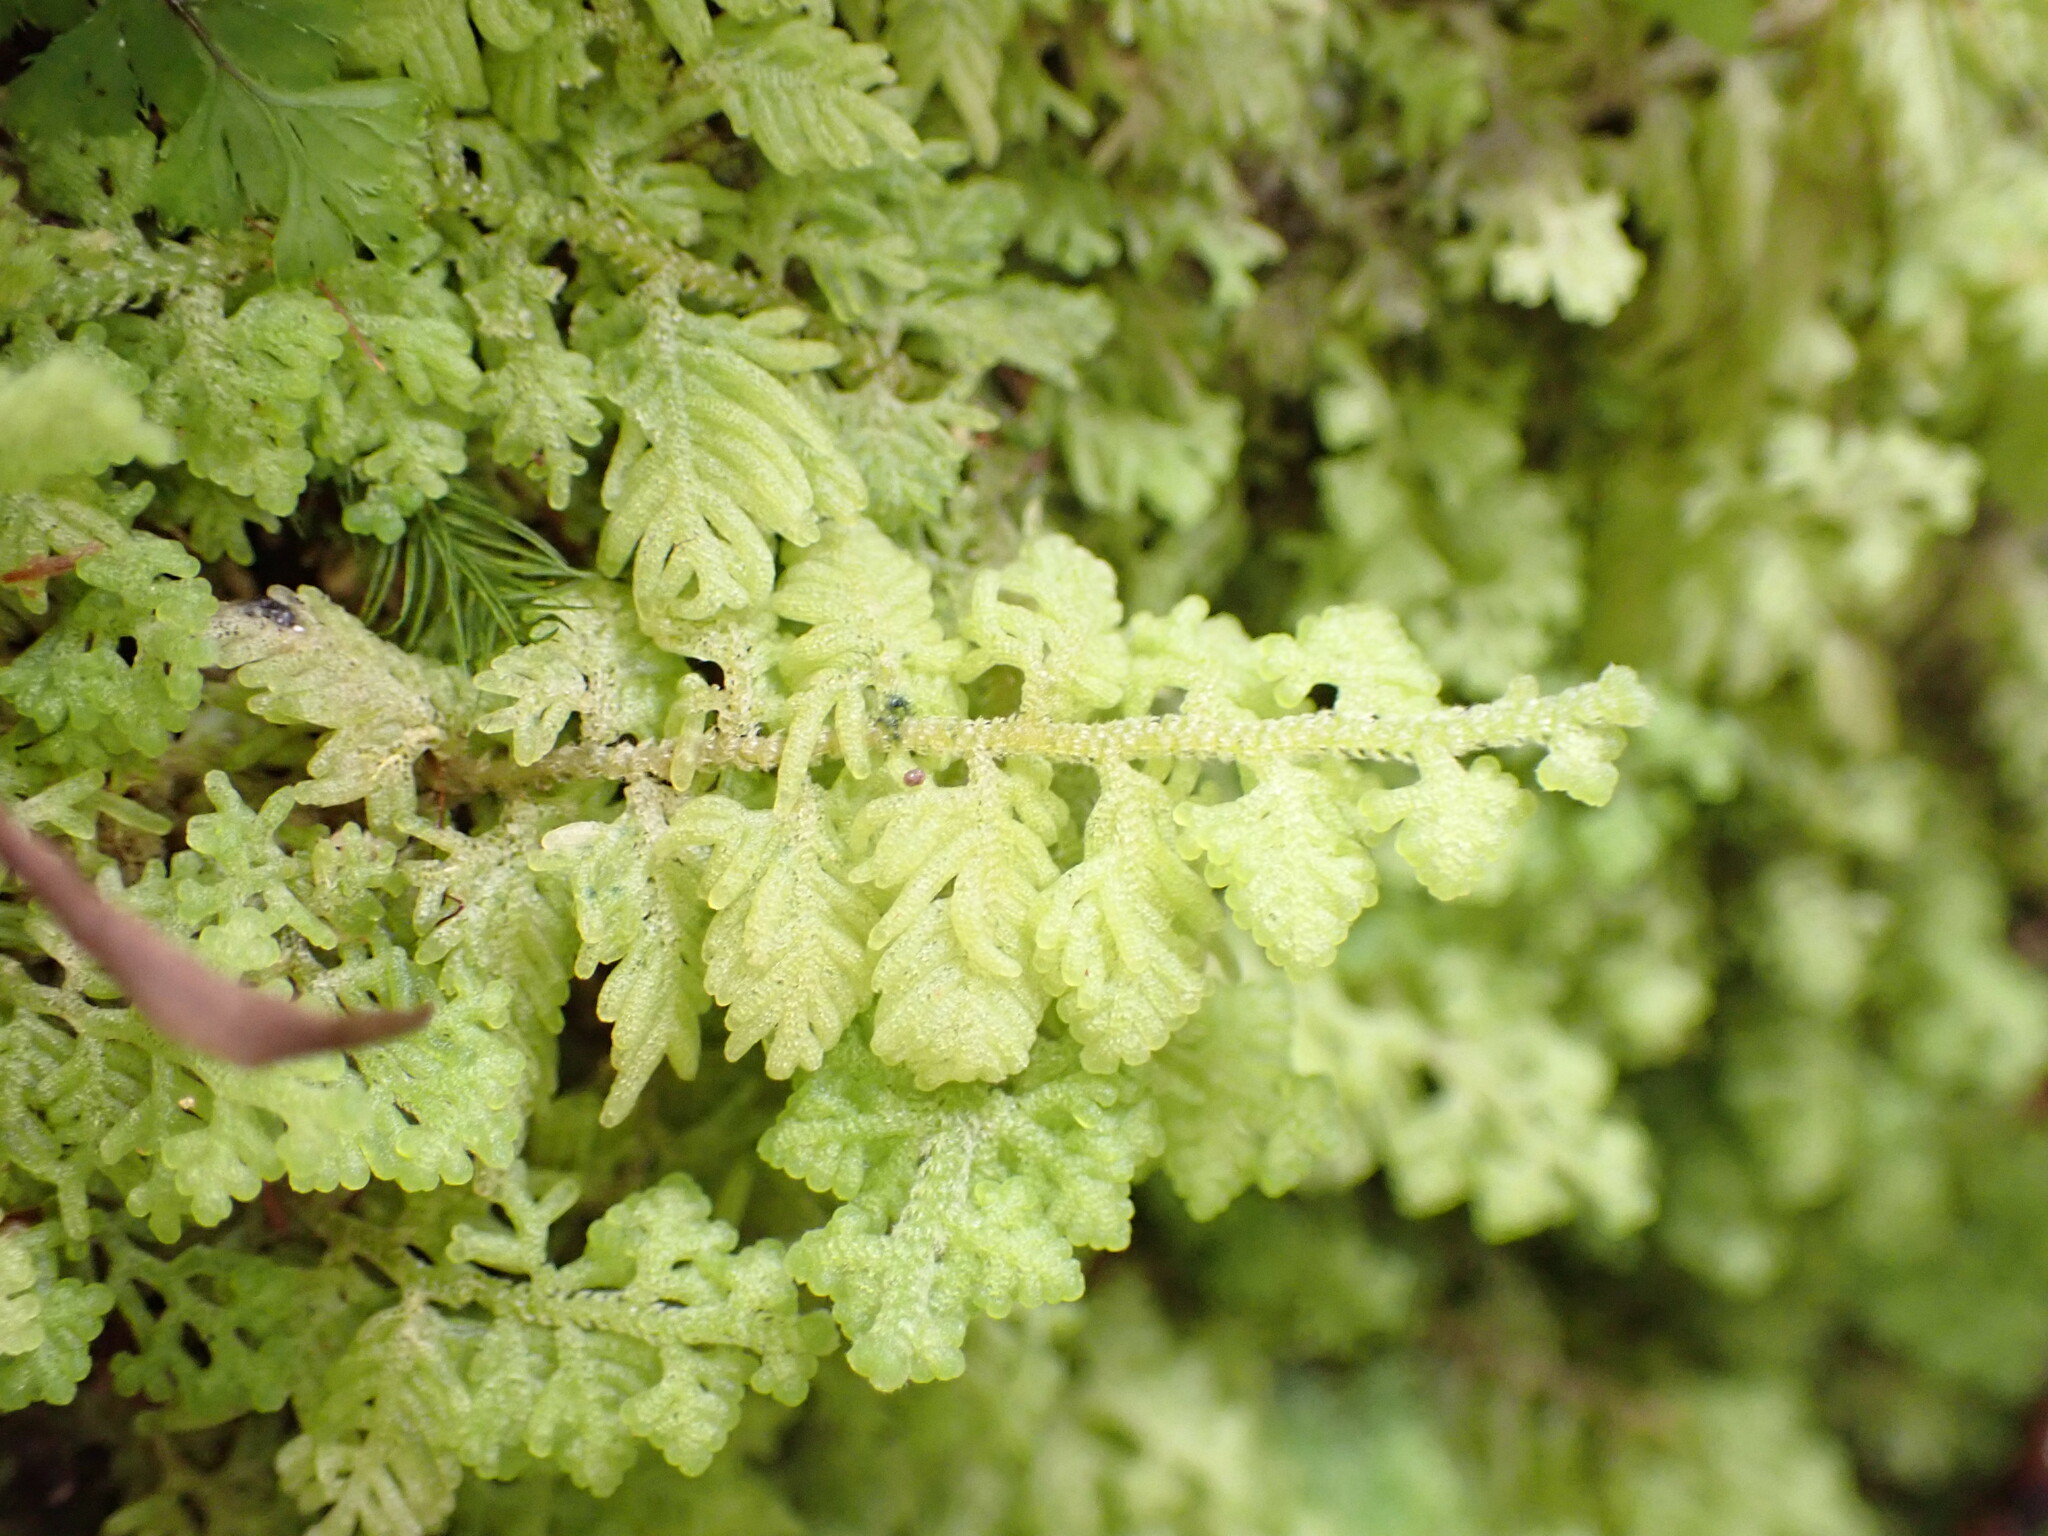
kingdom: Plantae
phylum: Marchantiophyta
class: Jungermanniopsida
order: Jungermanniales
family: Trichocoleaceae
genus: Trichocolea
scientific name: Trichocolea mollissima
